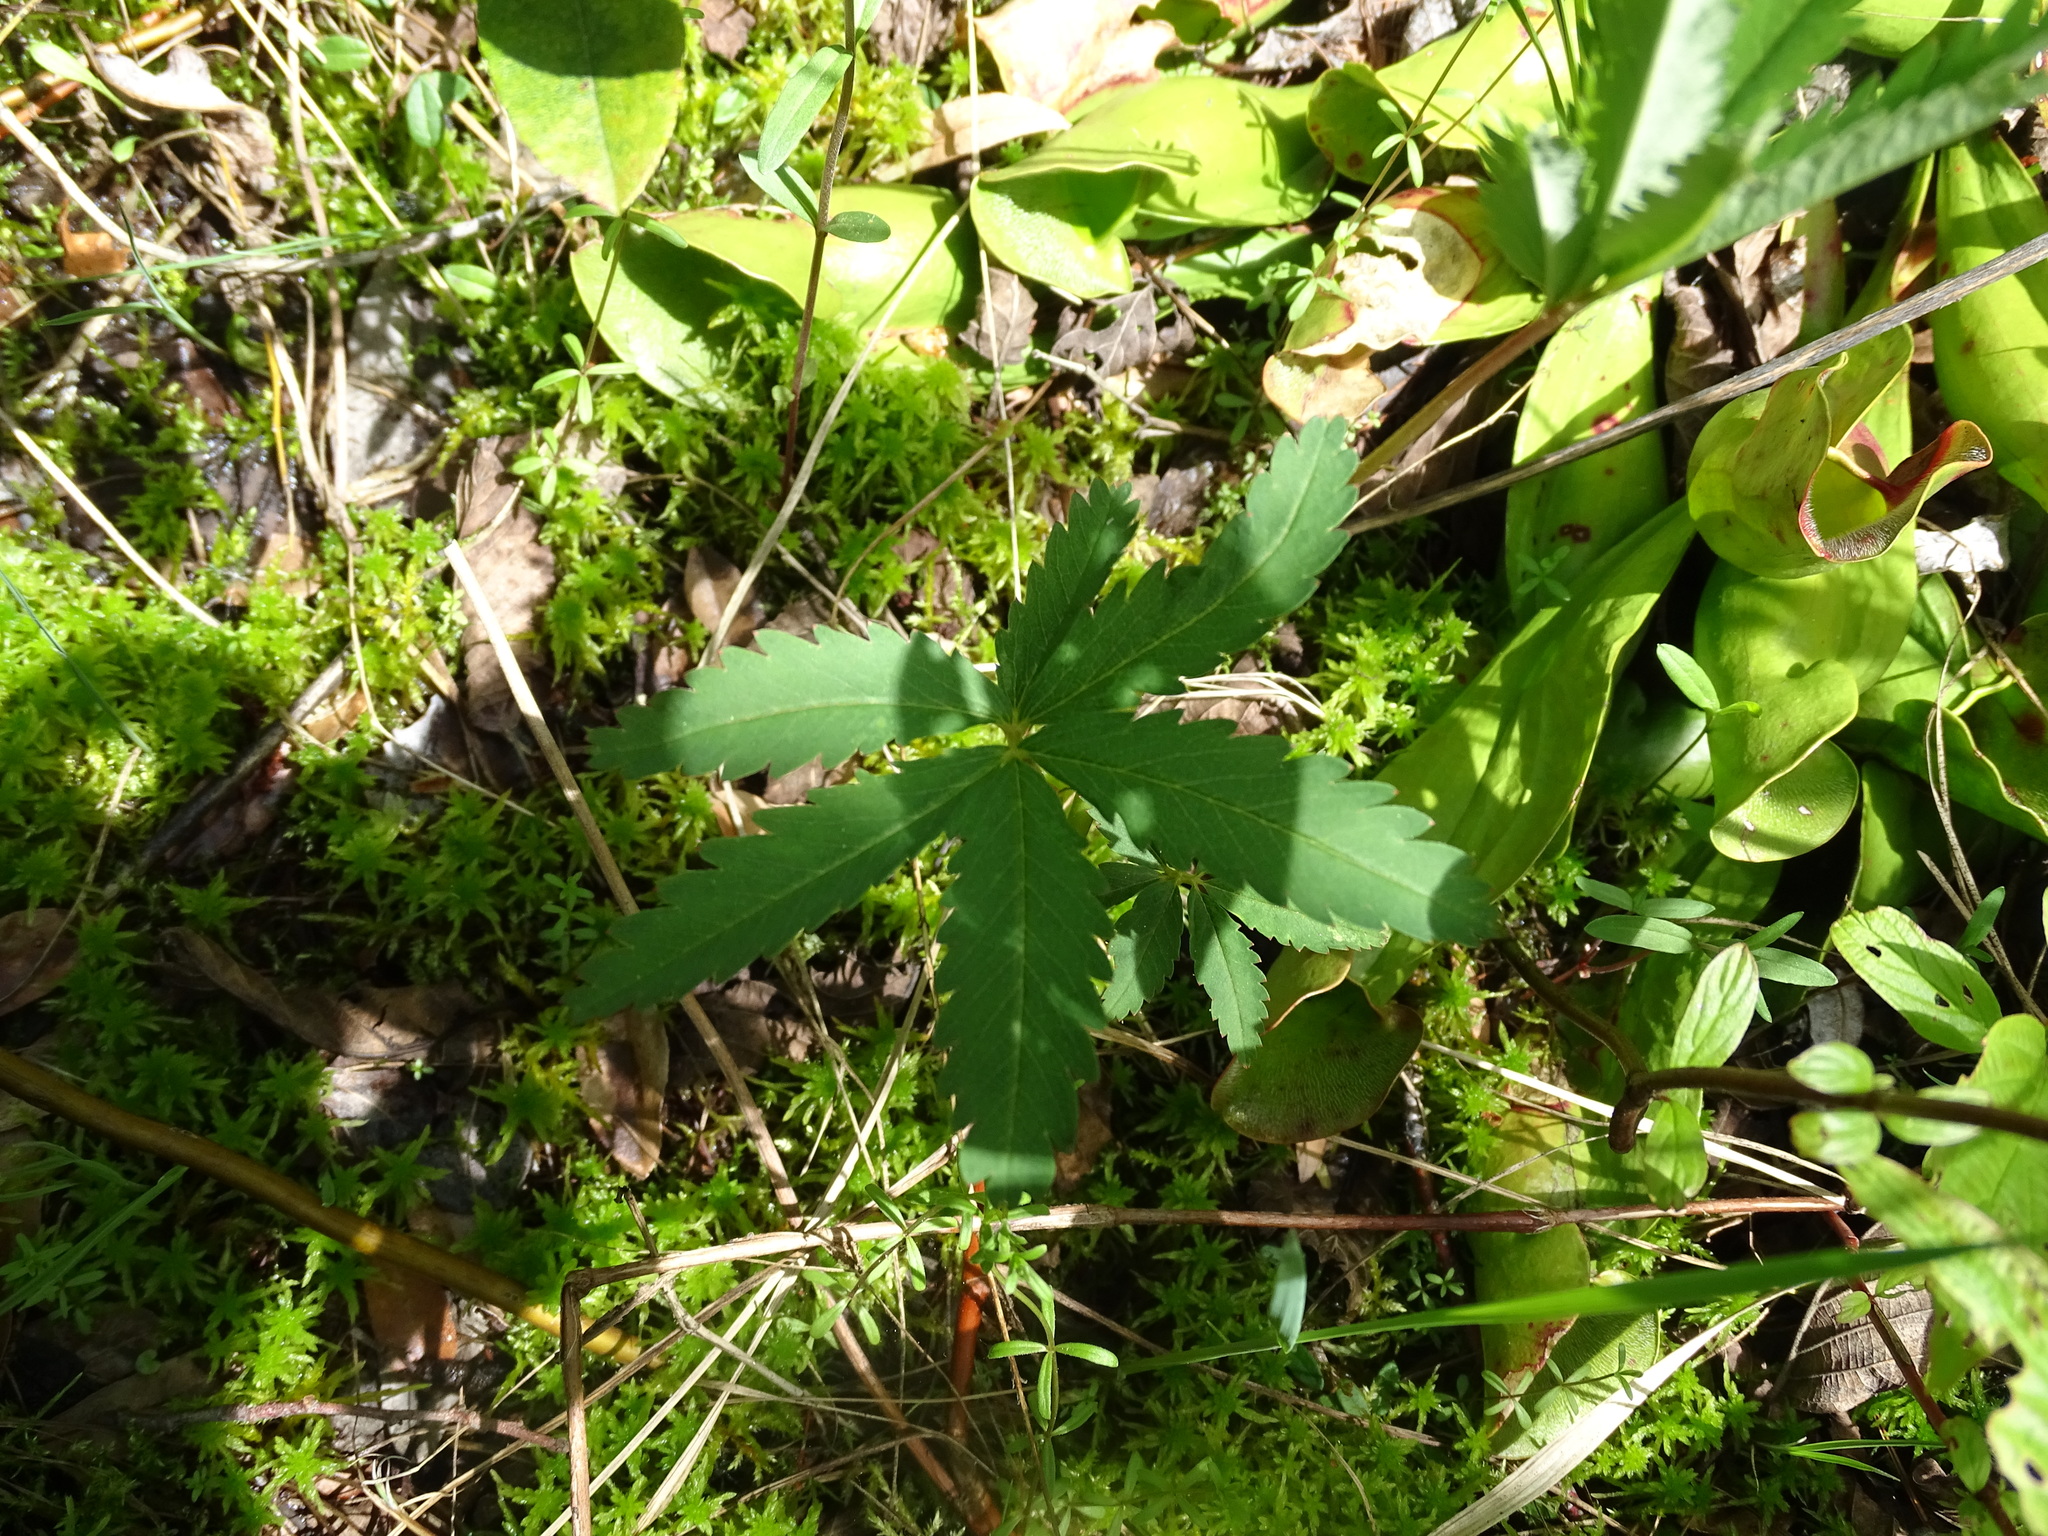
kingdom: Plantae
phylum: Tracheophyta
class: Magnoliopsida
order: Rosales
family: Rosaceae
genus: Comarum
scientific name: Comarum palustre
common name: Marsh cinquefoil
